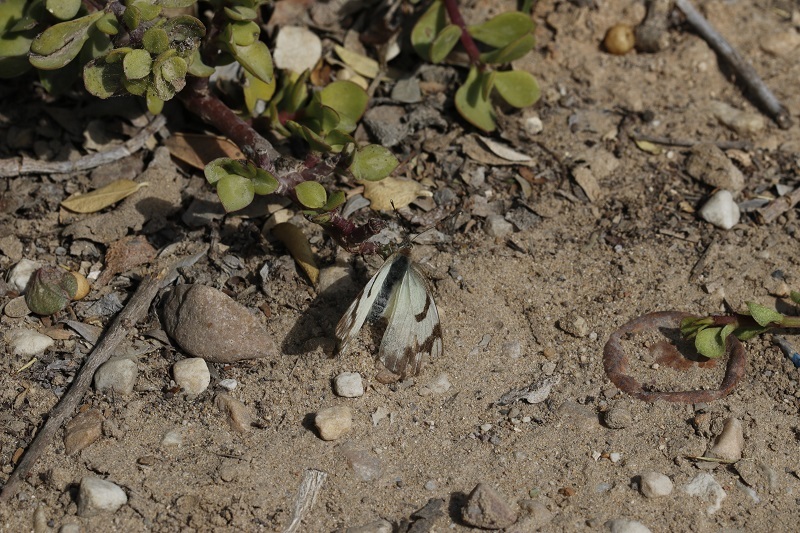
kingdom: Animalia
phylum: Arthropoda
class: Insecta
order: Lepidoptera
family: Pieridae
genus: Belenois
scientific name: Belenois gidica
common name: Pointed caper white
